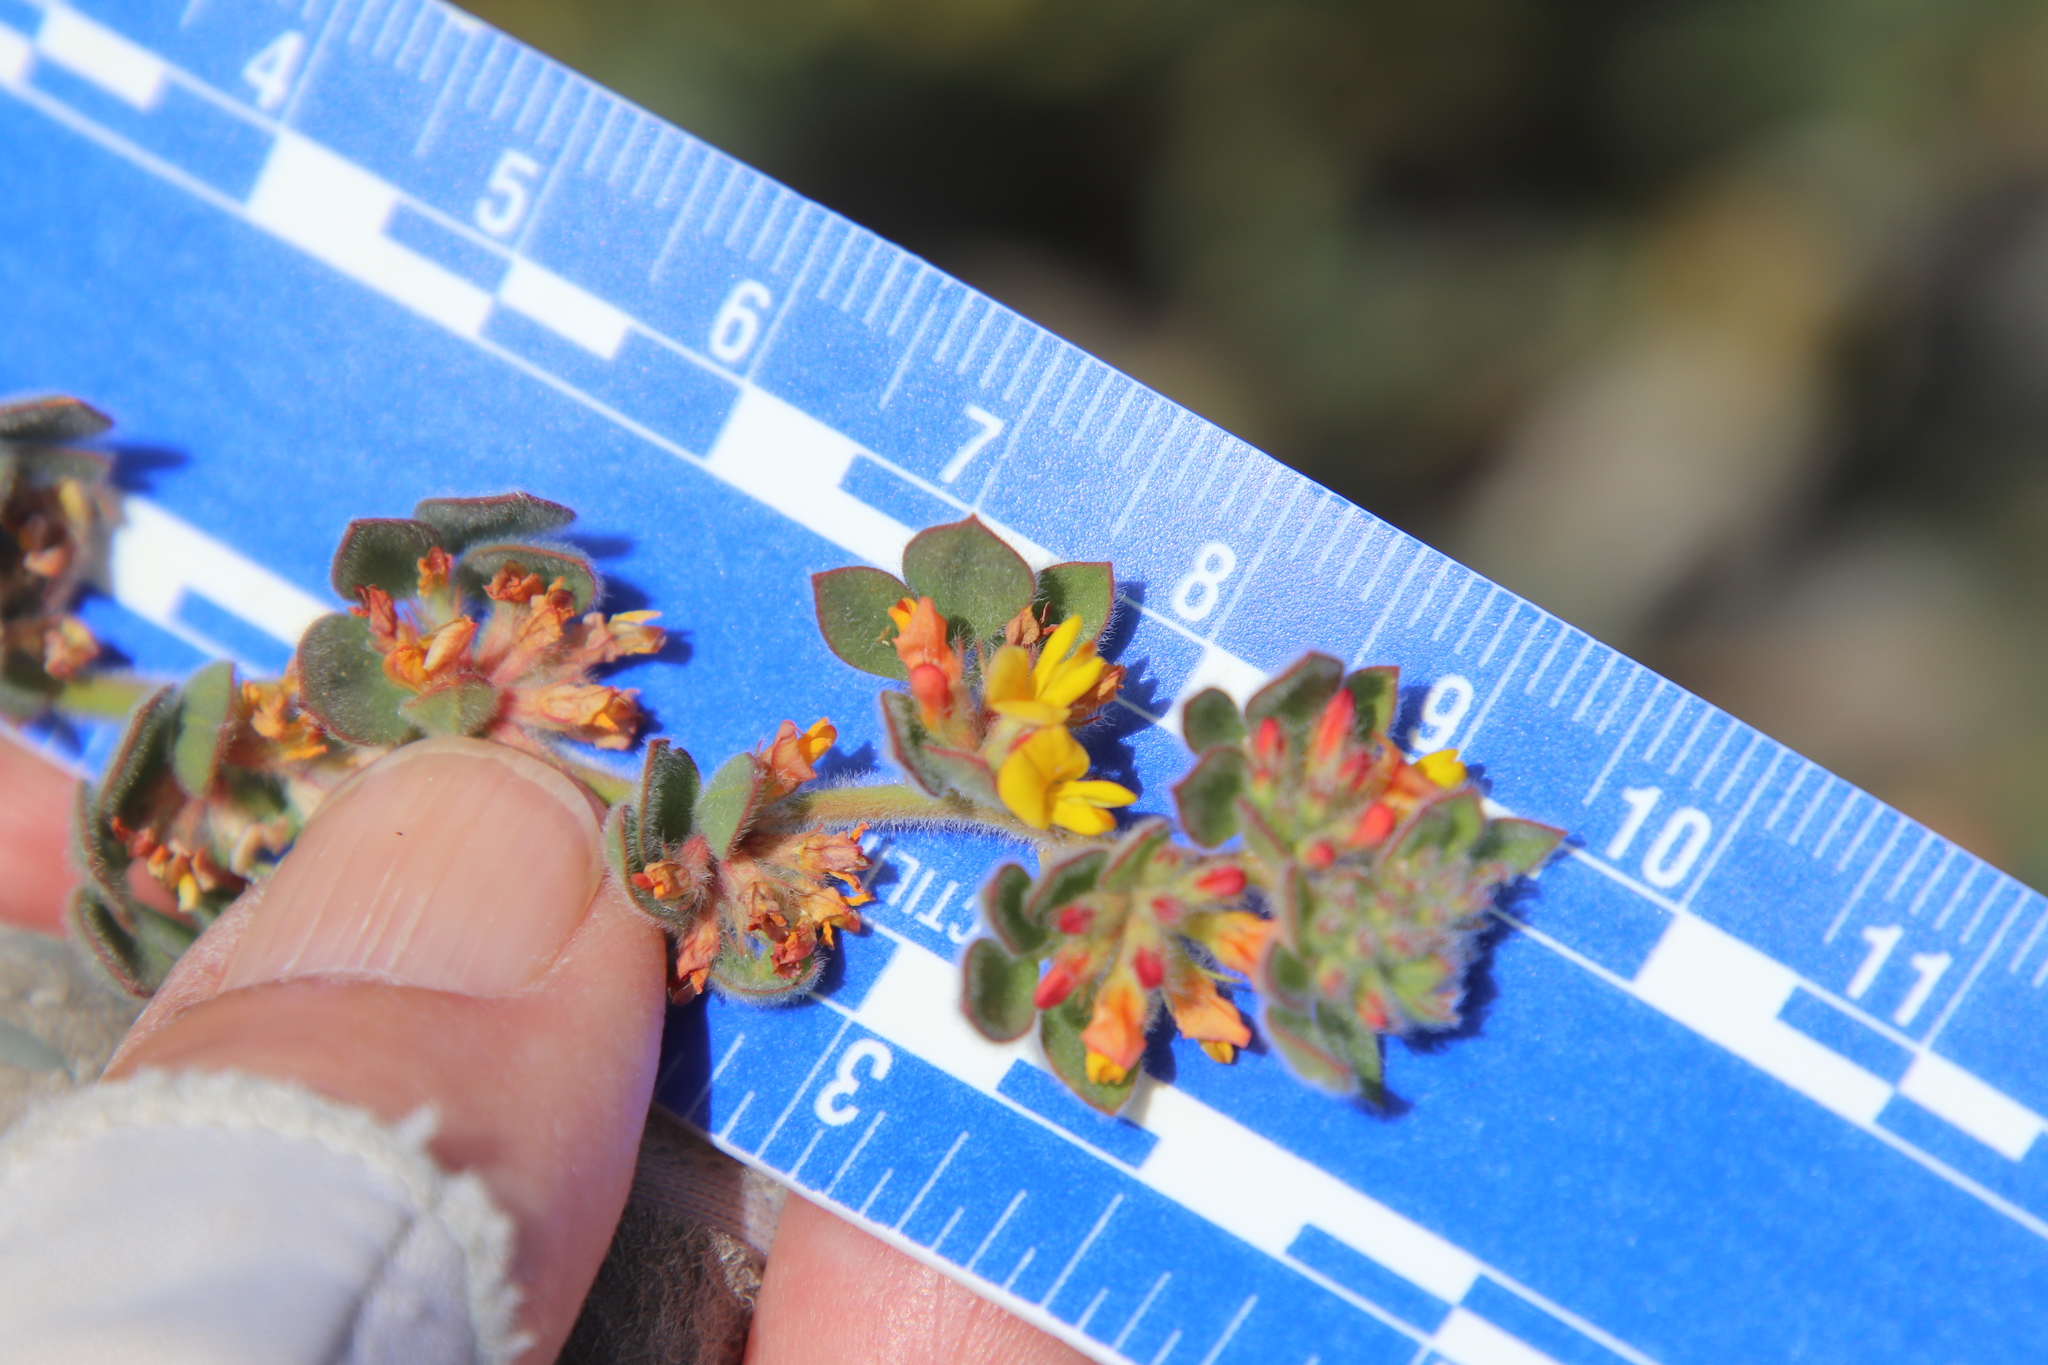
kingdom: Plantae
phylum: Tracheophyta
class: Magnoliopsida
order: Fabales
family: Fabaceae
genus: Acmispon
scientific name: Acmispon tomentosus
